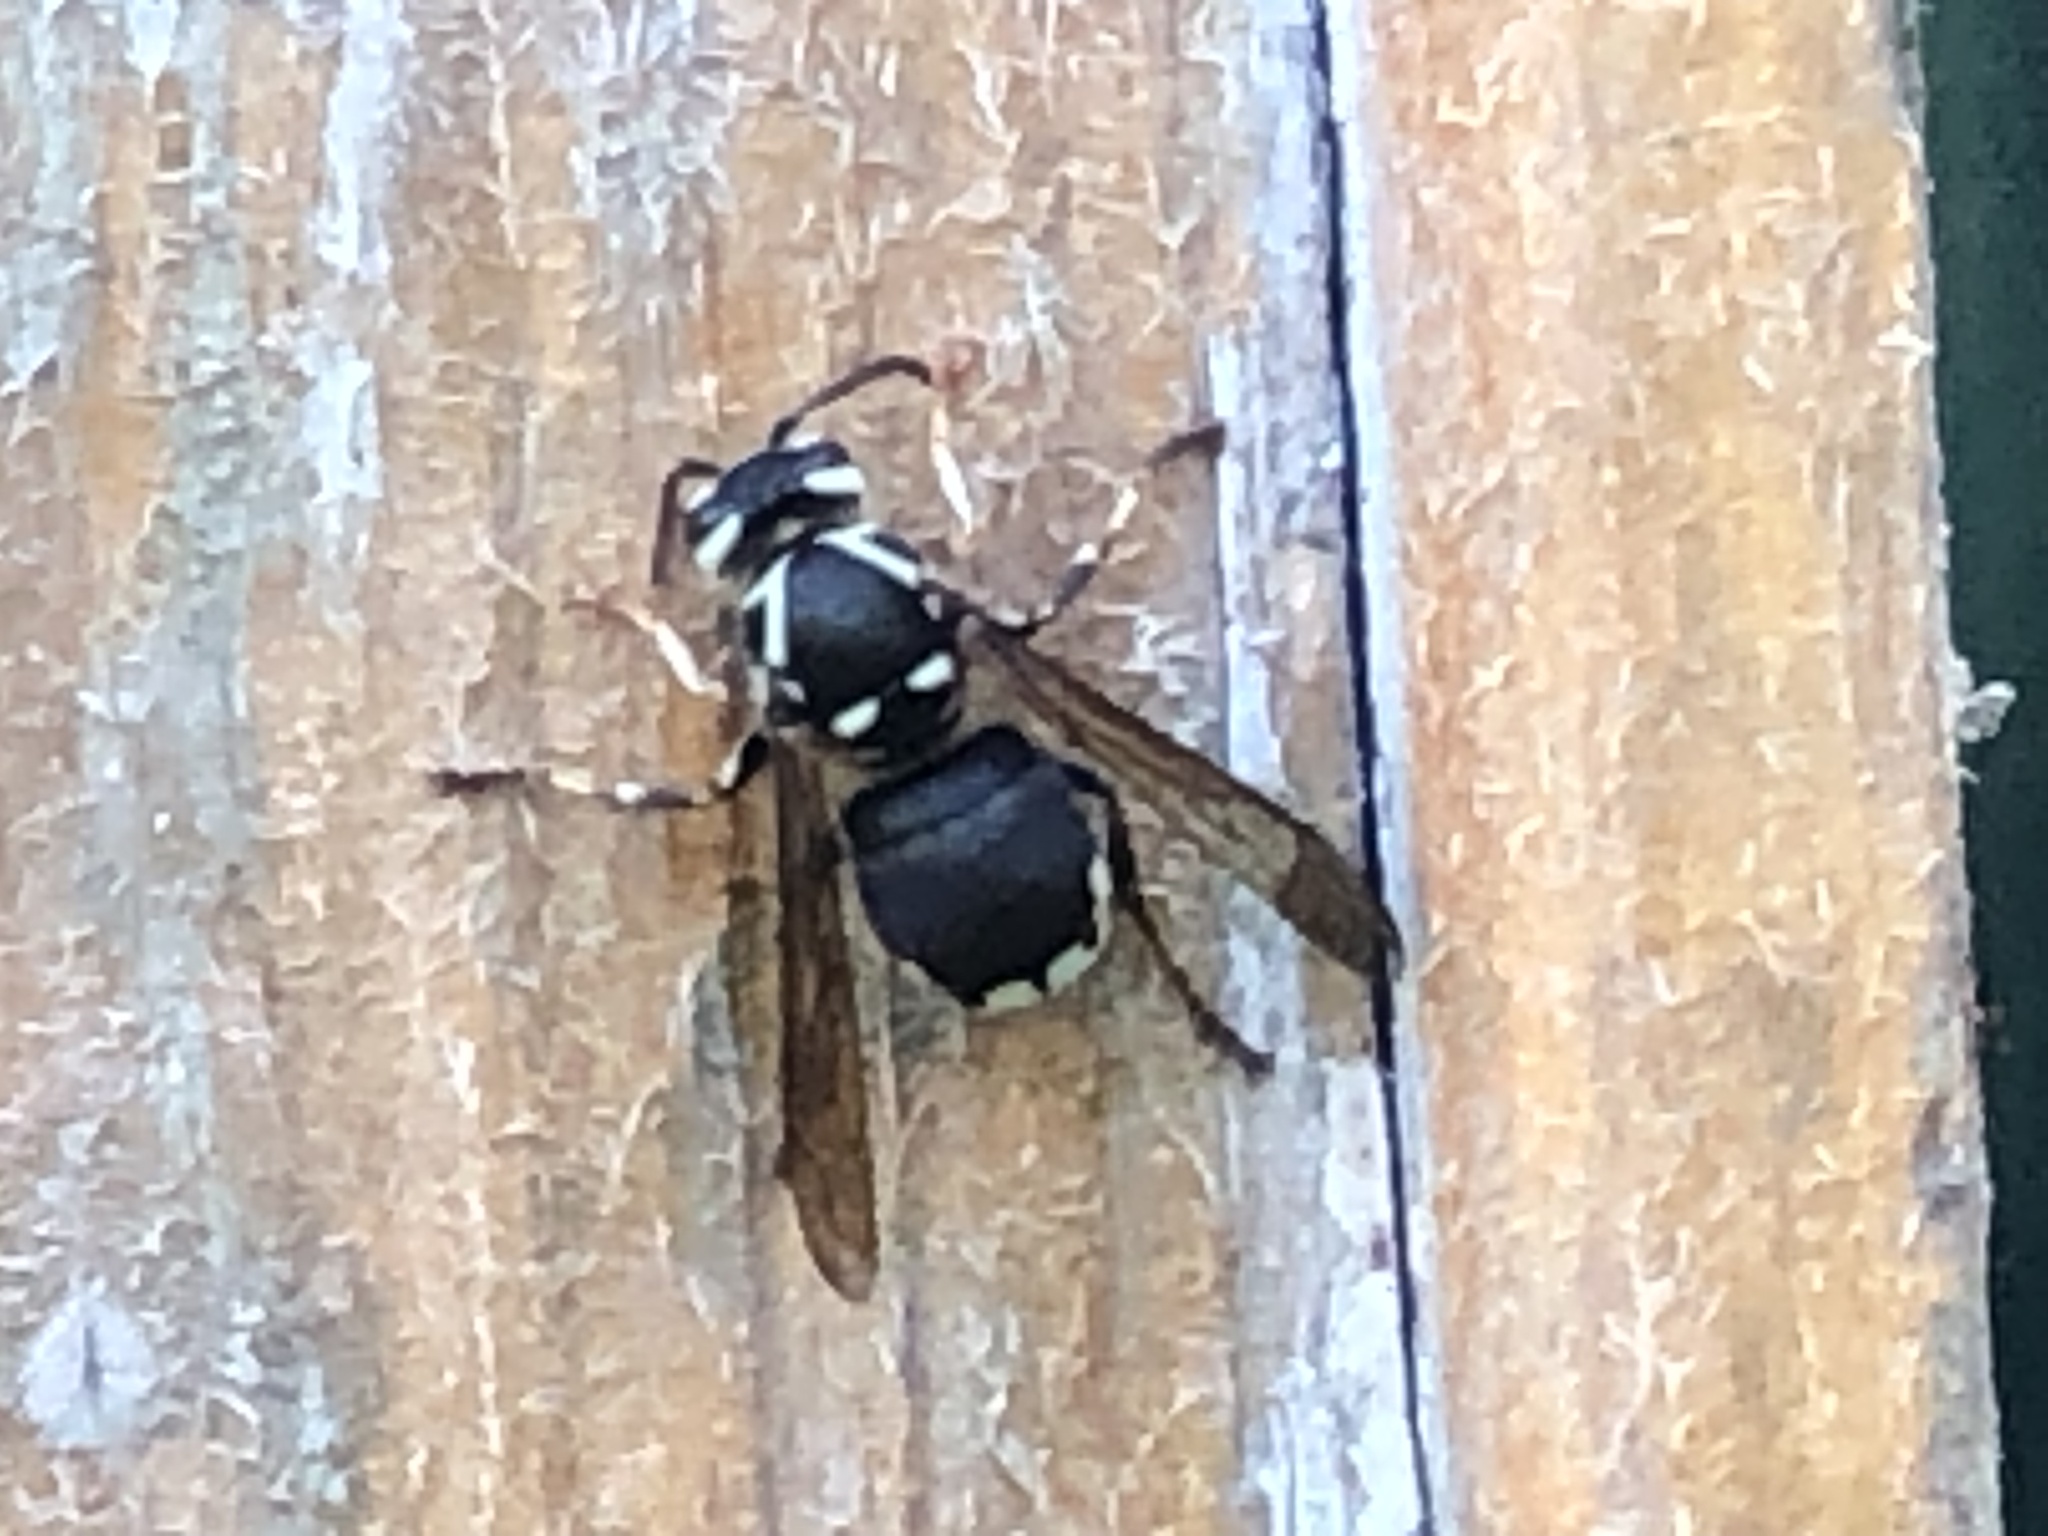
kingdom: Animalia
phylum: Arthropoda
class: Insecta
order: Hymenoptera
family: Vespidae
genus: Dolichovespula
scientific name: Dolichovespula maculata
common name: Bald-faced hornet
